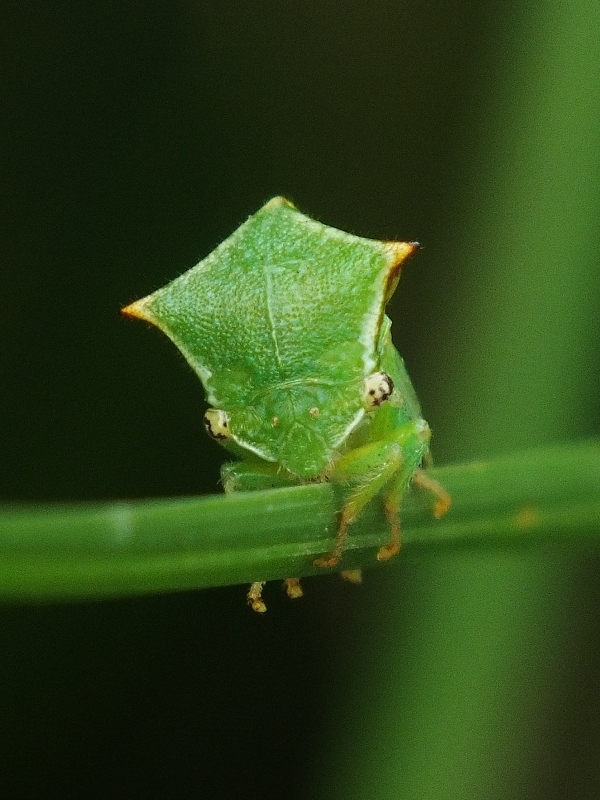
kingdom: Animalia
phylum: Arthropoda
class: Insecta
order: Hemiptera
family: Membracidae
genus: Stictocephala
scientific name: Stictocephala bisonia
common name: American buffalo treehopper
